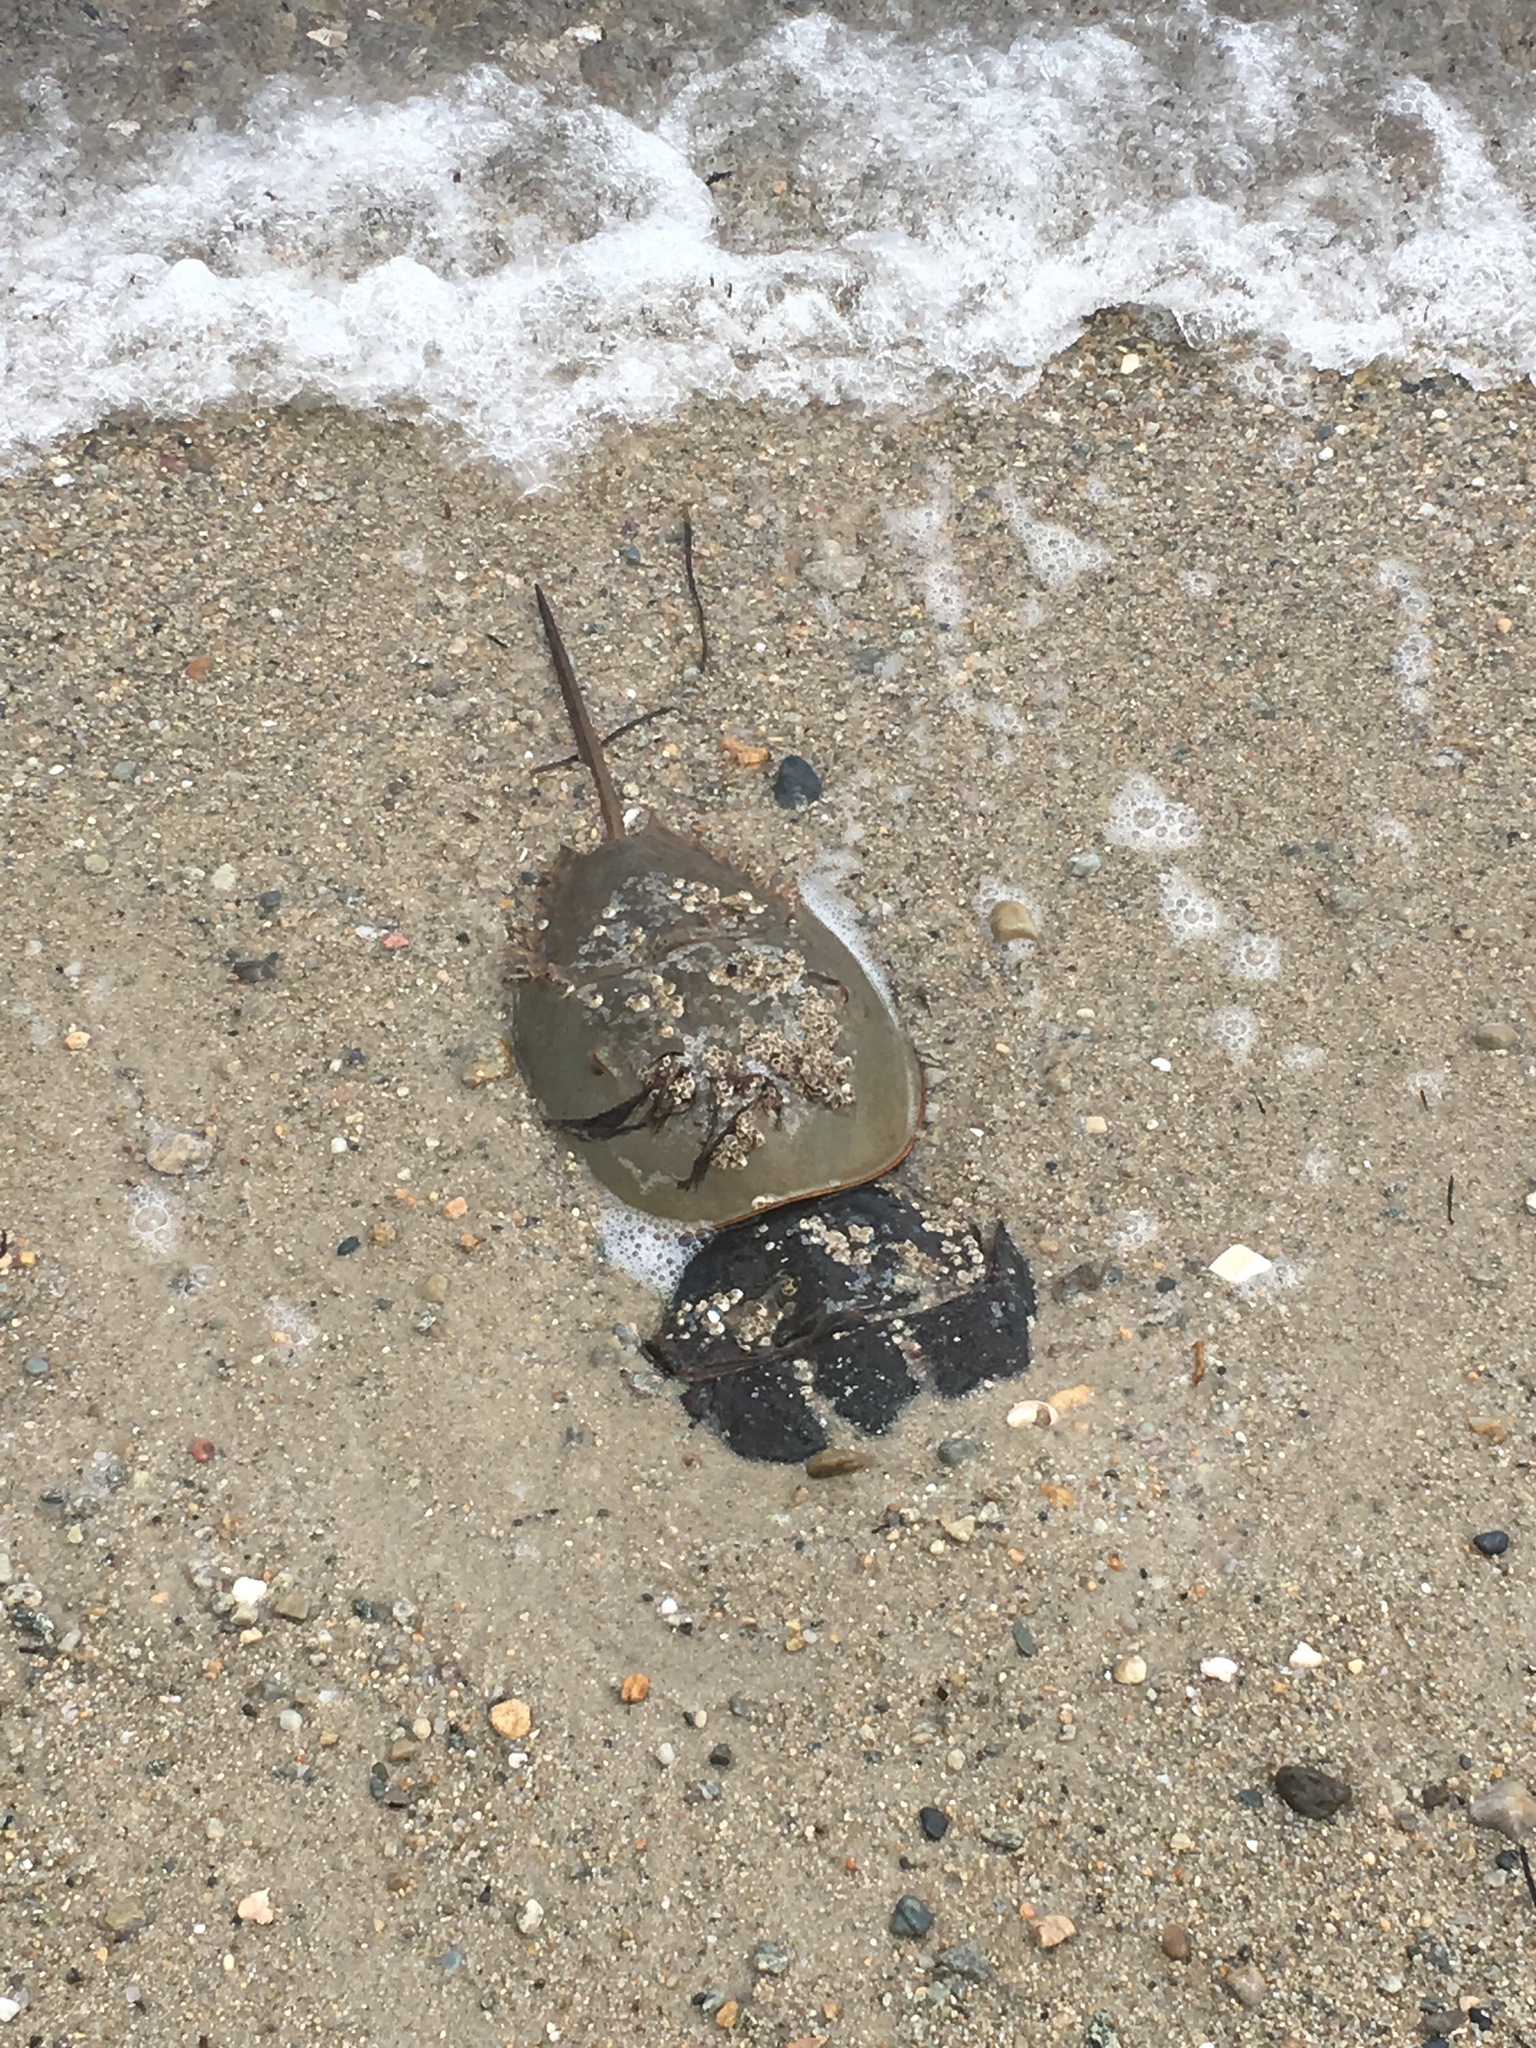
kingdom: Animalia
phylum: Arthropoda
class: Merostomata
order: Xiphosurida
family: Limulidae
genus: Limulus
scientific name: Limulus polyphemus
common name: Horseshoe crab
